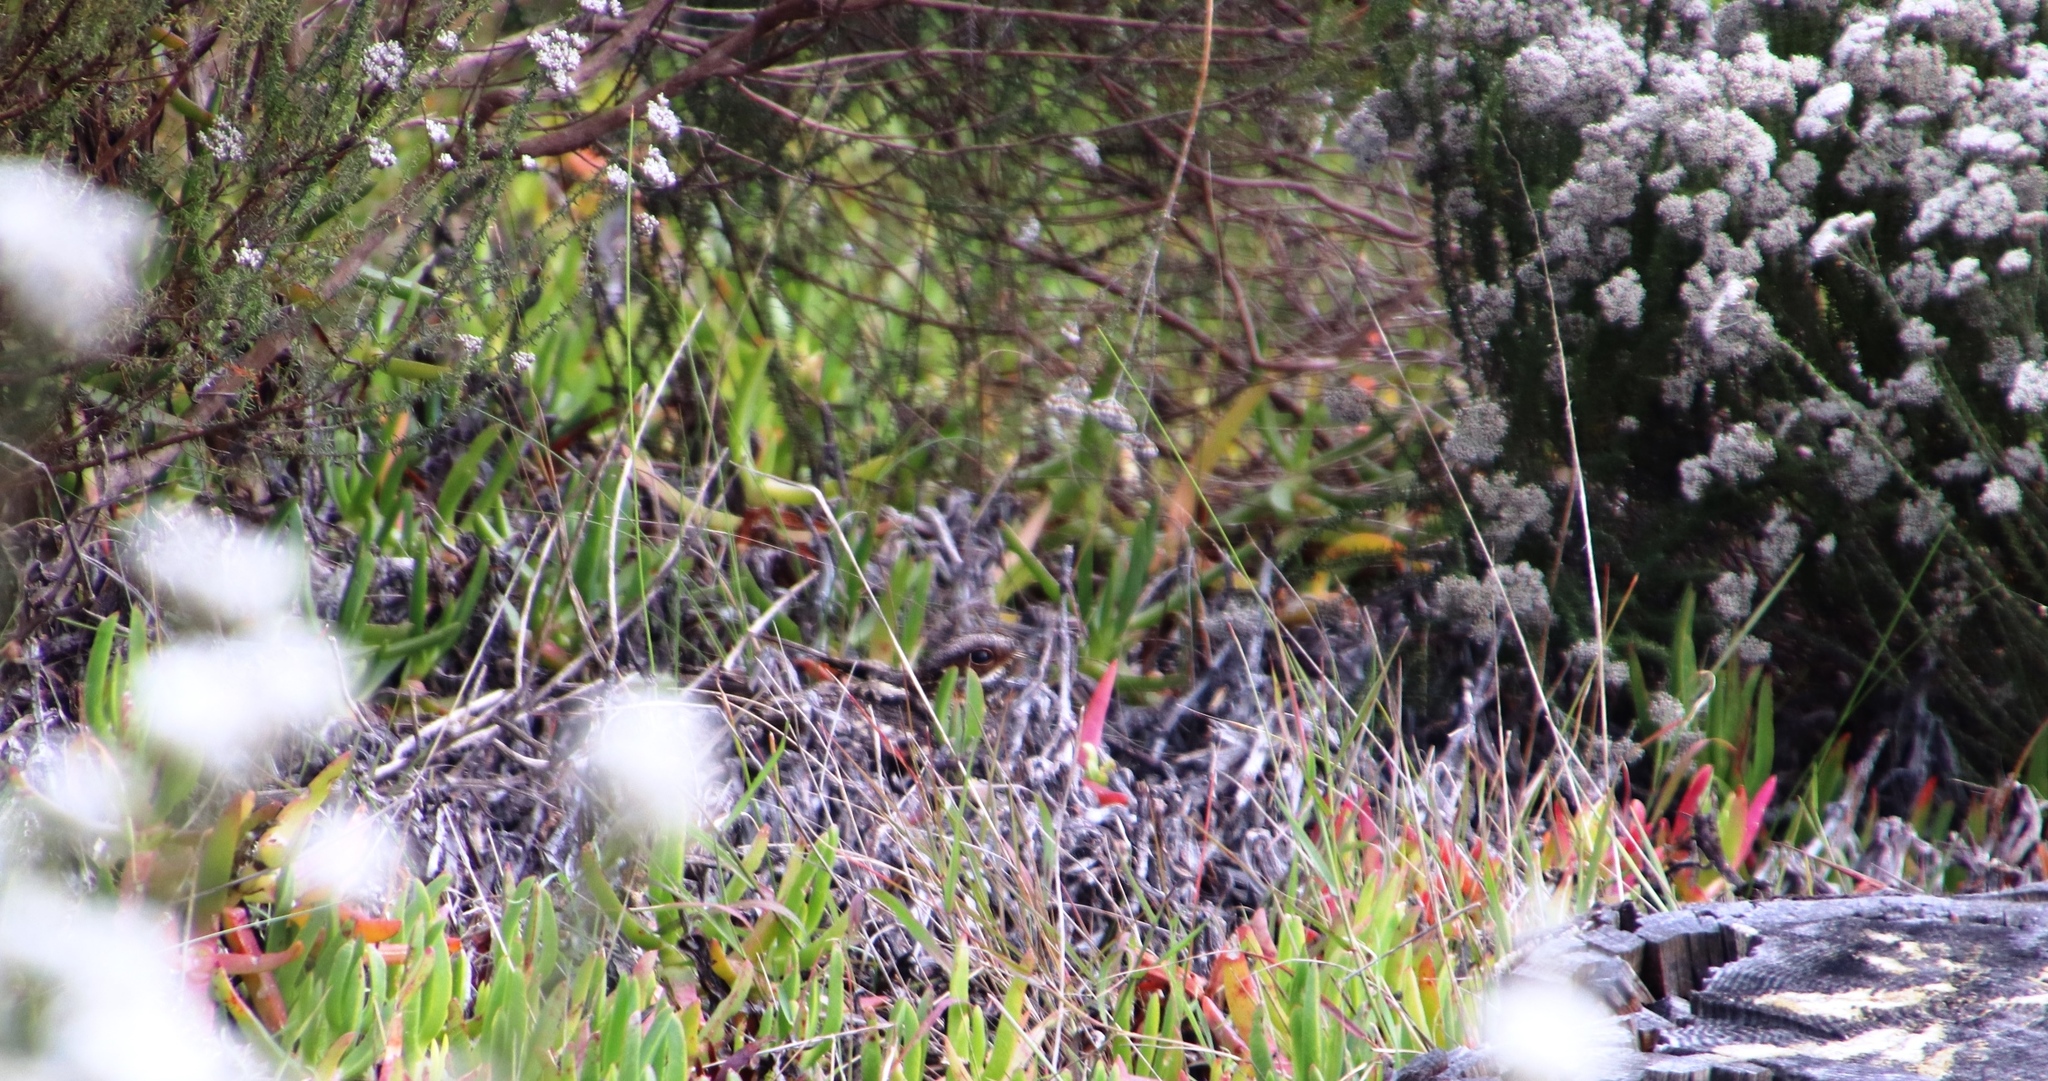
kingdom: Animalia
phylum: Chordata
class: Aves
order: Caprimulgiformes
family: Caprimulgidae
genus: Caprimulgus
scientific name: Caprimulgus pectoralis
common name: Fiery-necked nightjar
